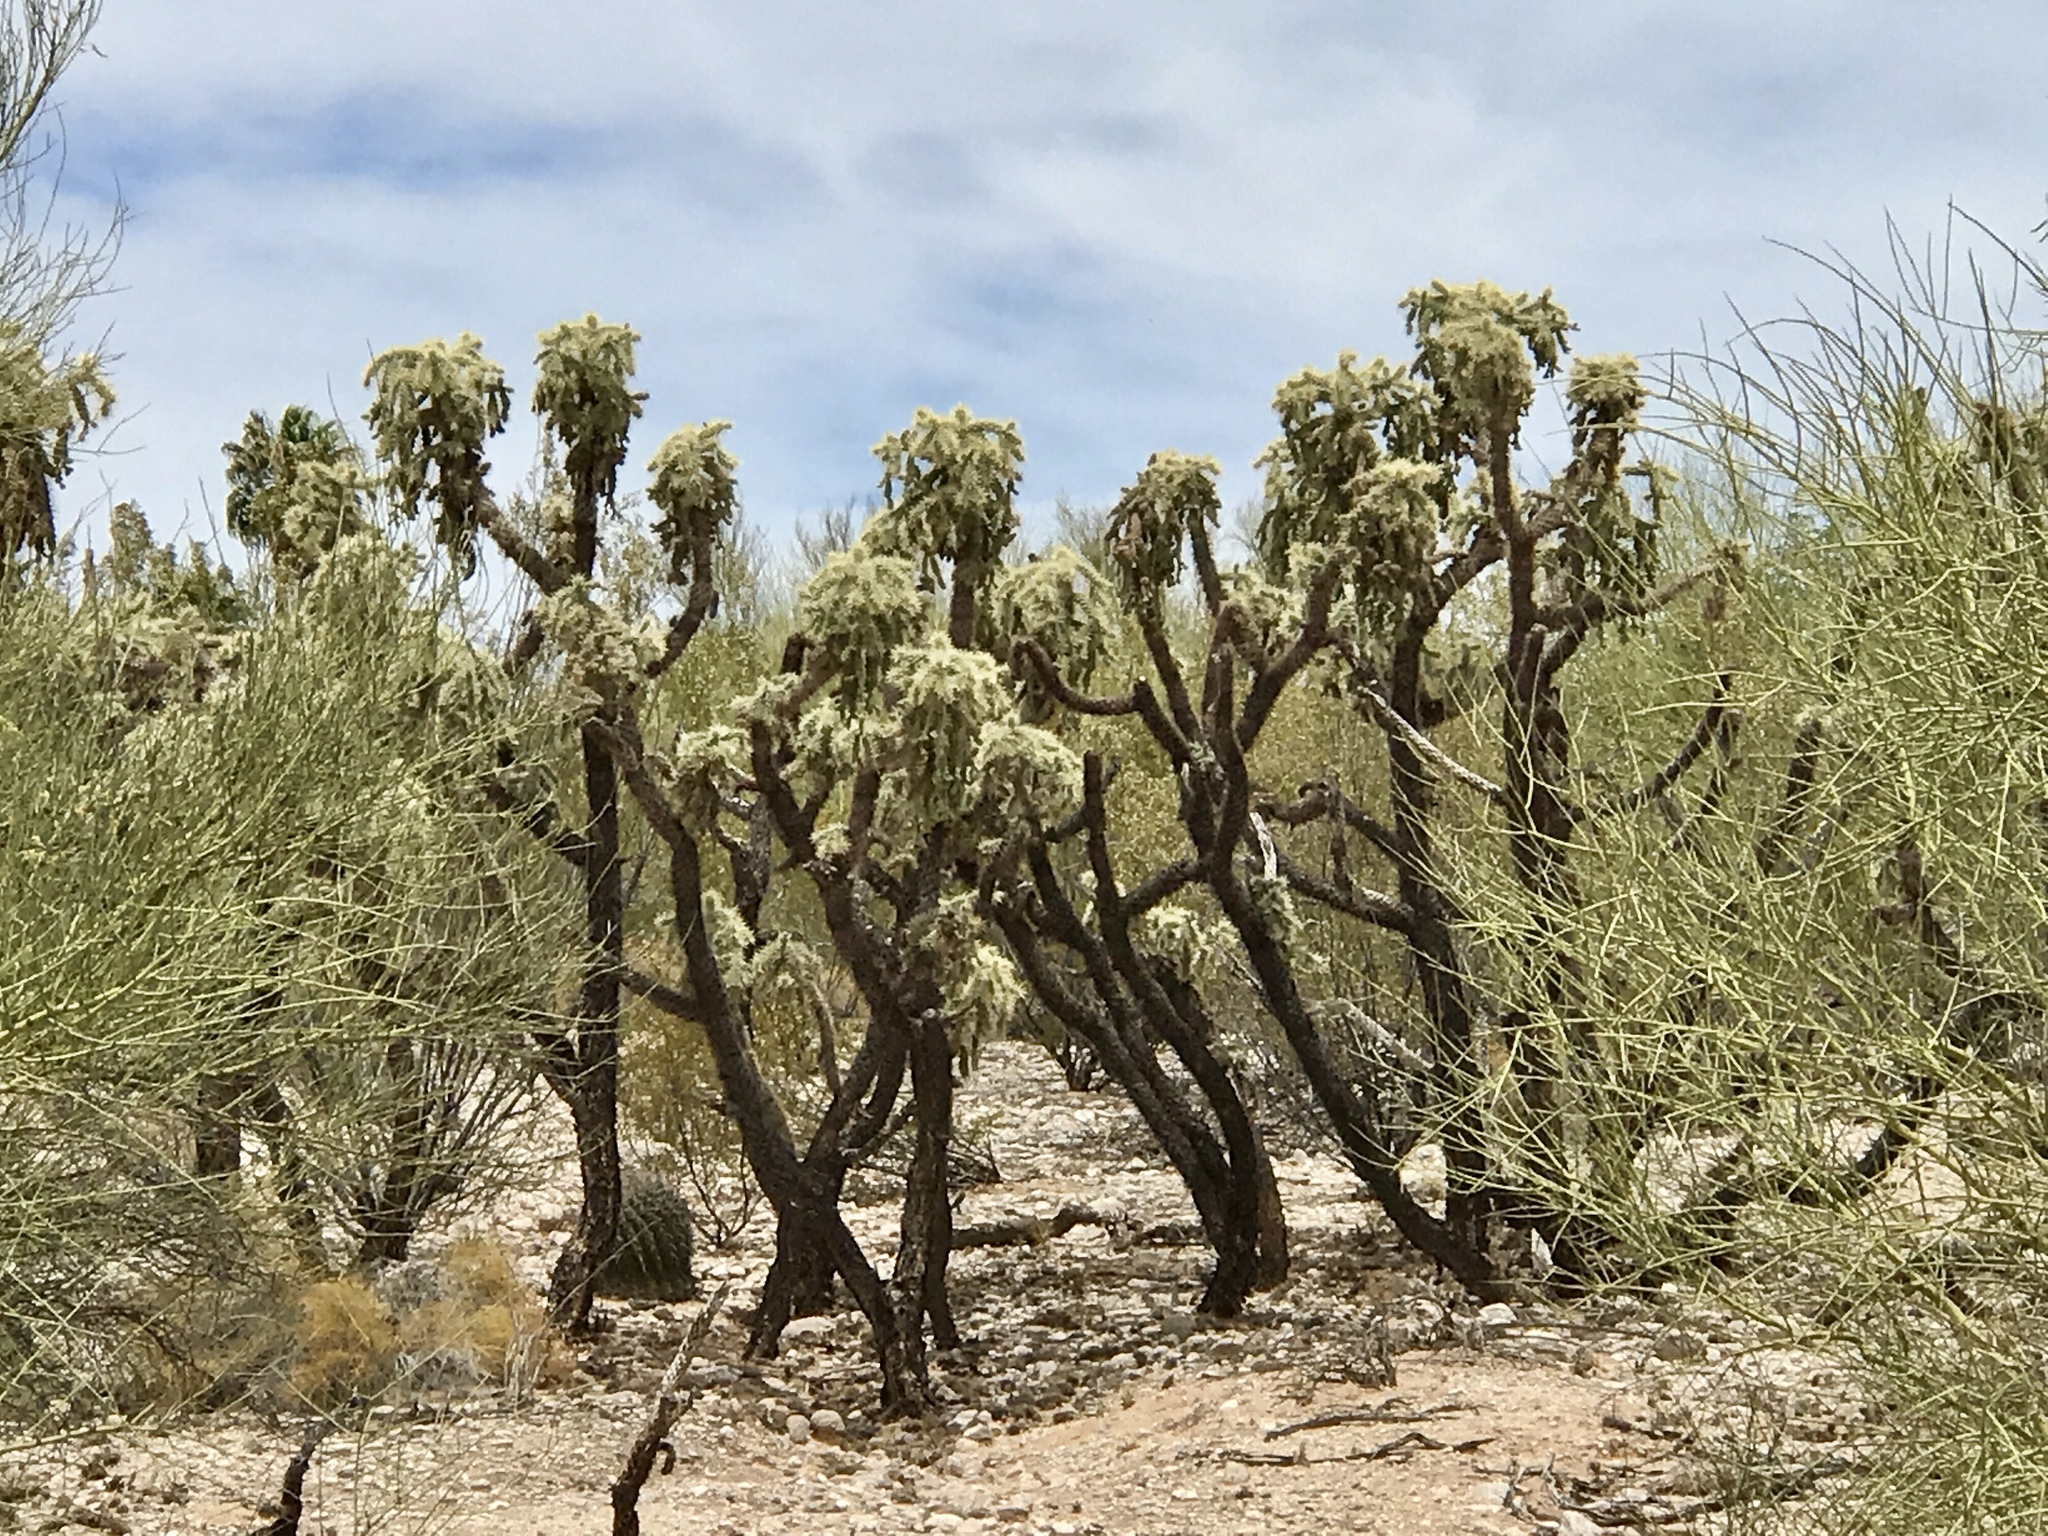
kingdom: Plantae
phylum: Tracheophyta
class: Magnoliopsida
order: Caryophyllales
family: Cactaceae
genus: Cylindropuntia
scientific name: Cylindropuntia fulgida
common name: Jumping cholla
